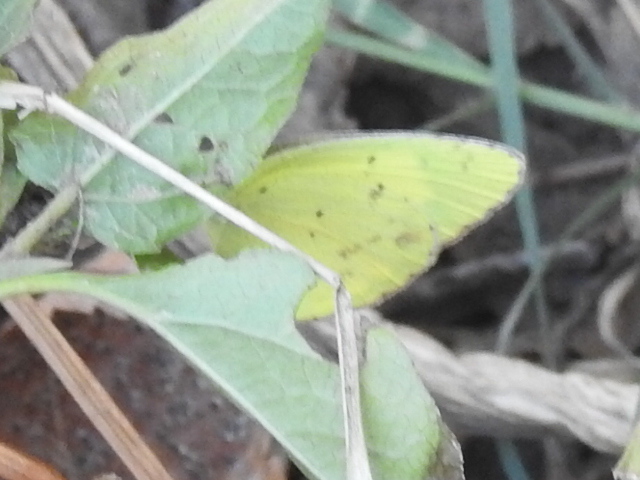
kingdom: Animalia
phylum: Arthropoda
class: Insecta
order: Lepidoptera
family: Pieridae
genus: Pyrisitia
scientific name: Pyrisitia lisa
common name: Little yellow
